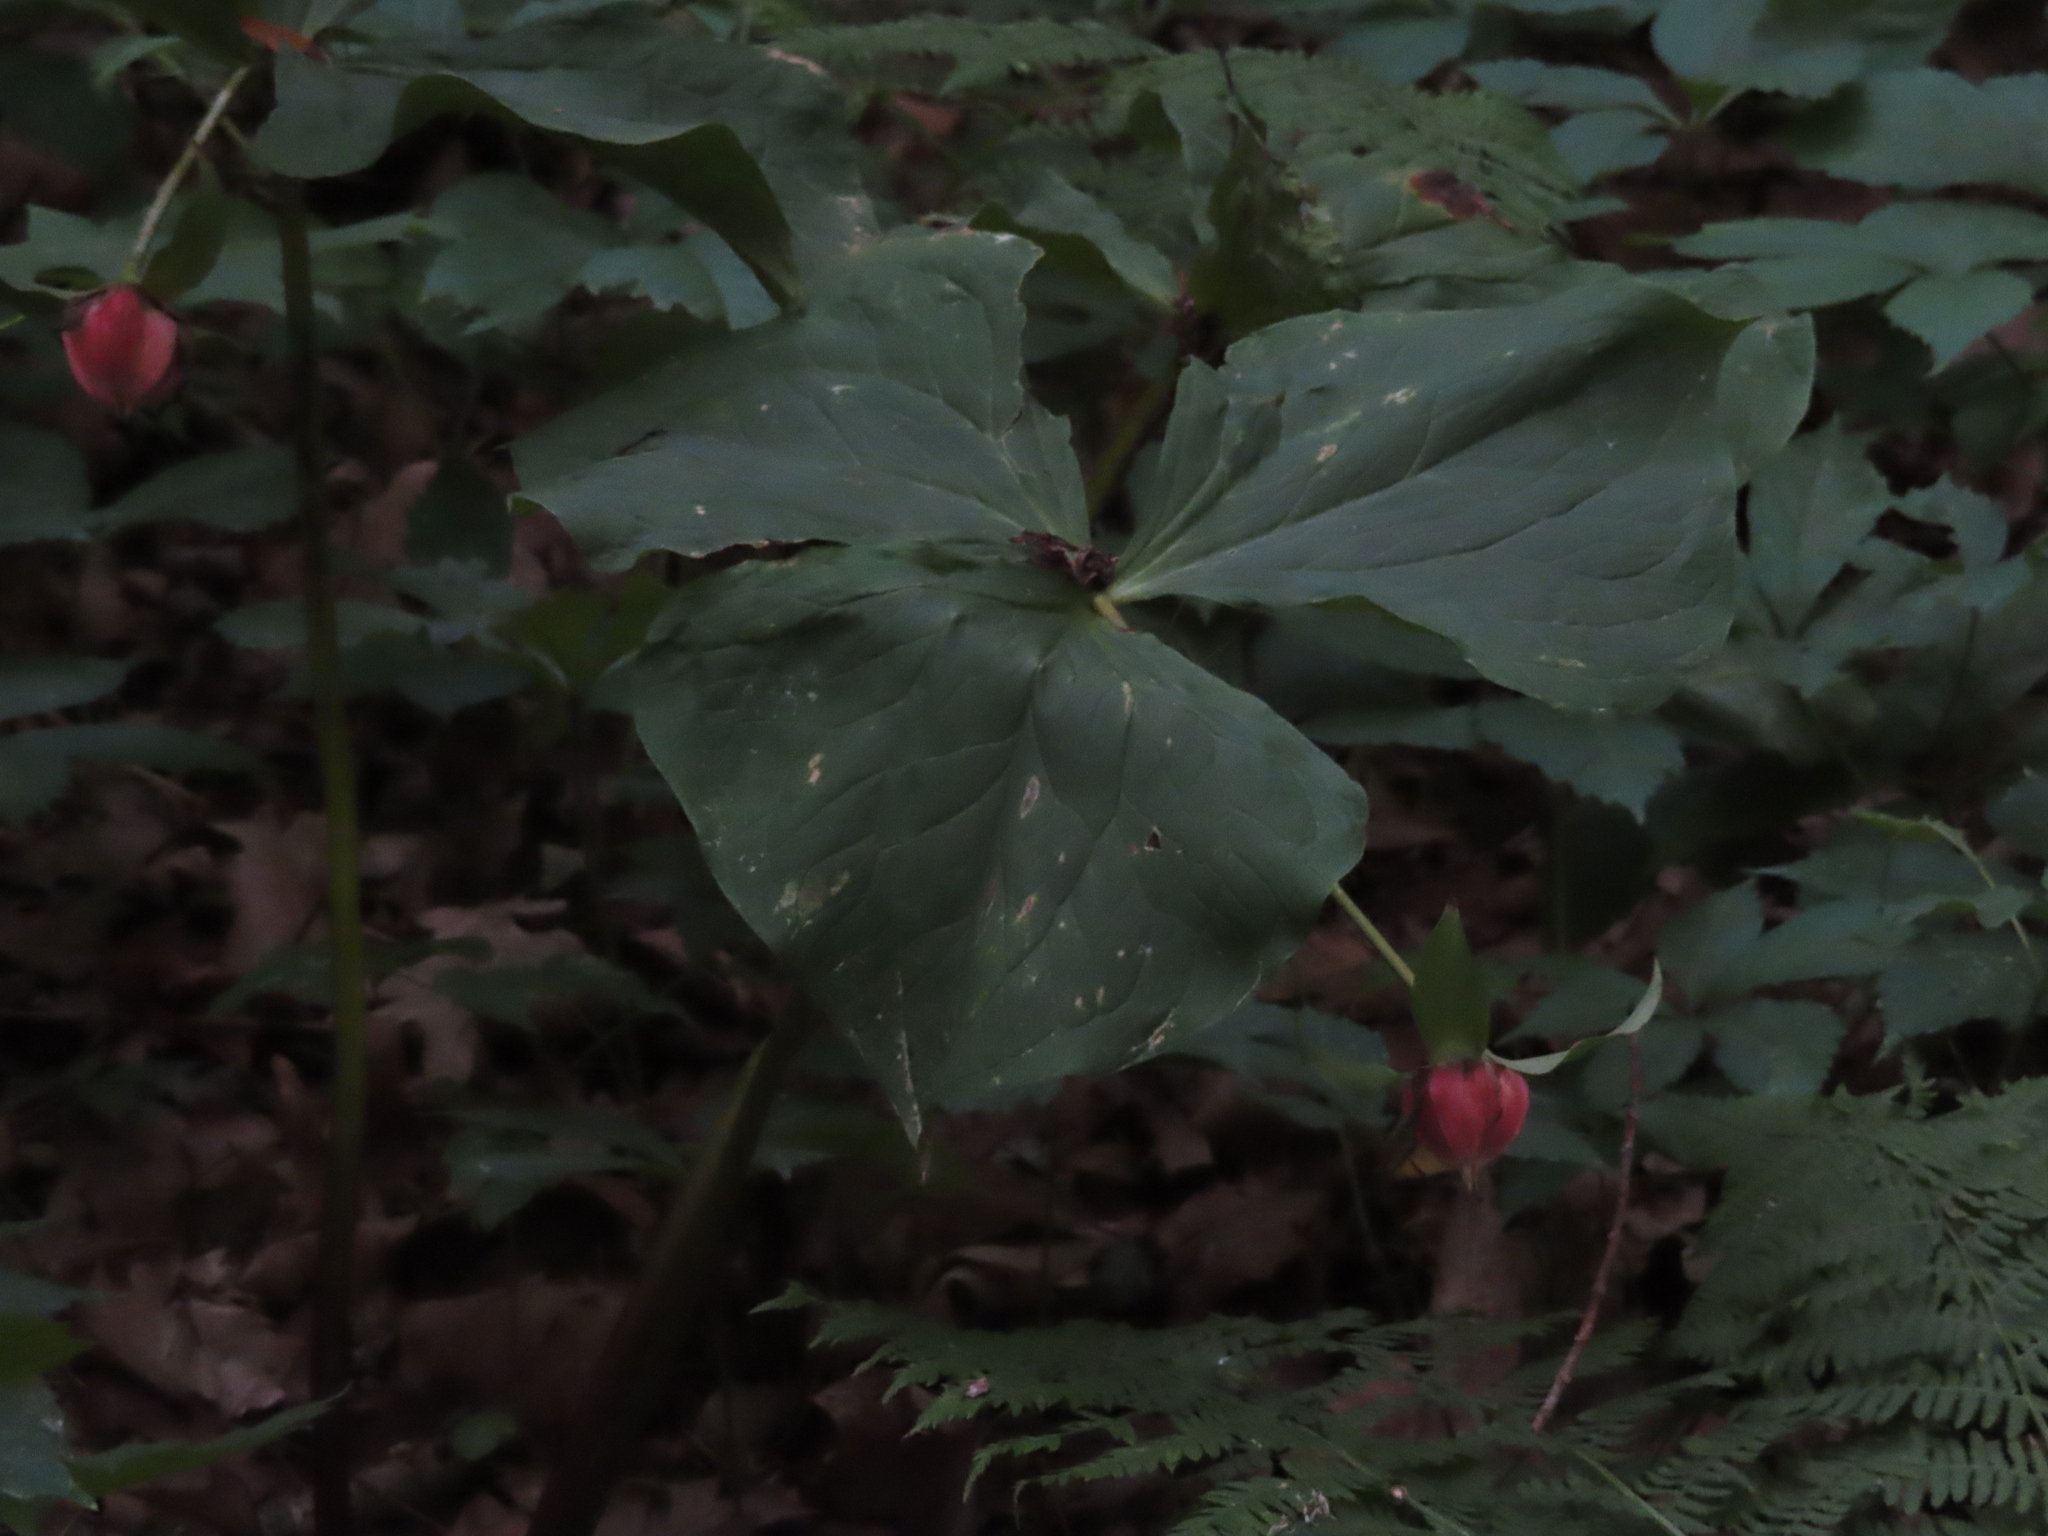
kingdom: Plantae
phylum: Tracheophyta
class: Liliopsida
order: Liliales
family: Melanthiaceae
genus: Trillium
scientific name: Trillium flexipes
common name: Drooping trillium
